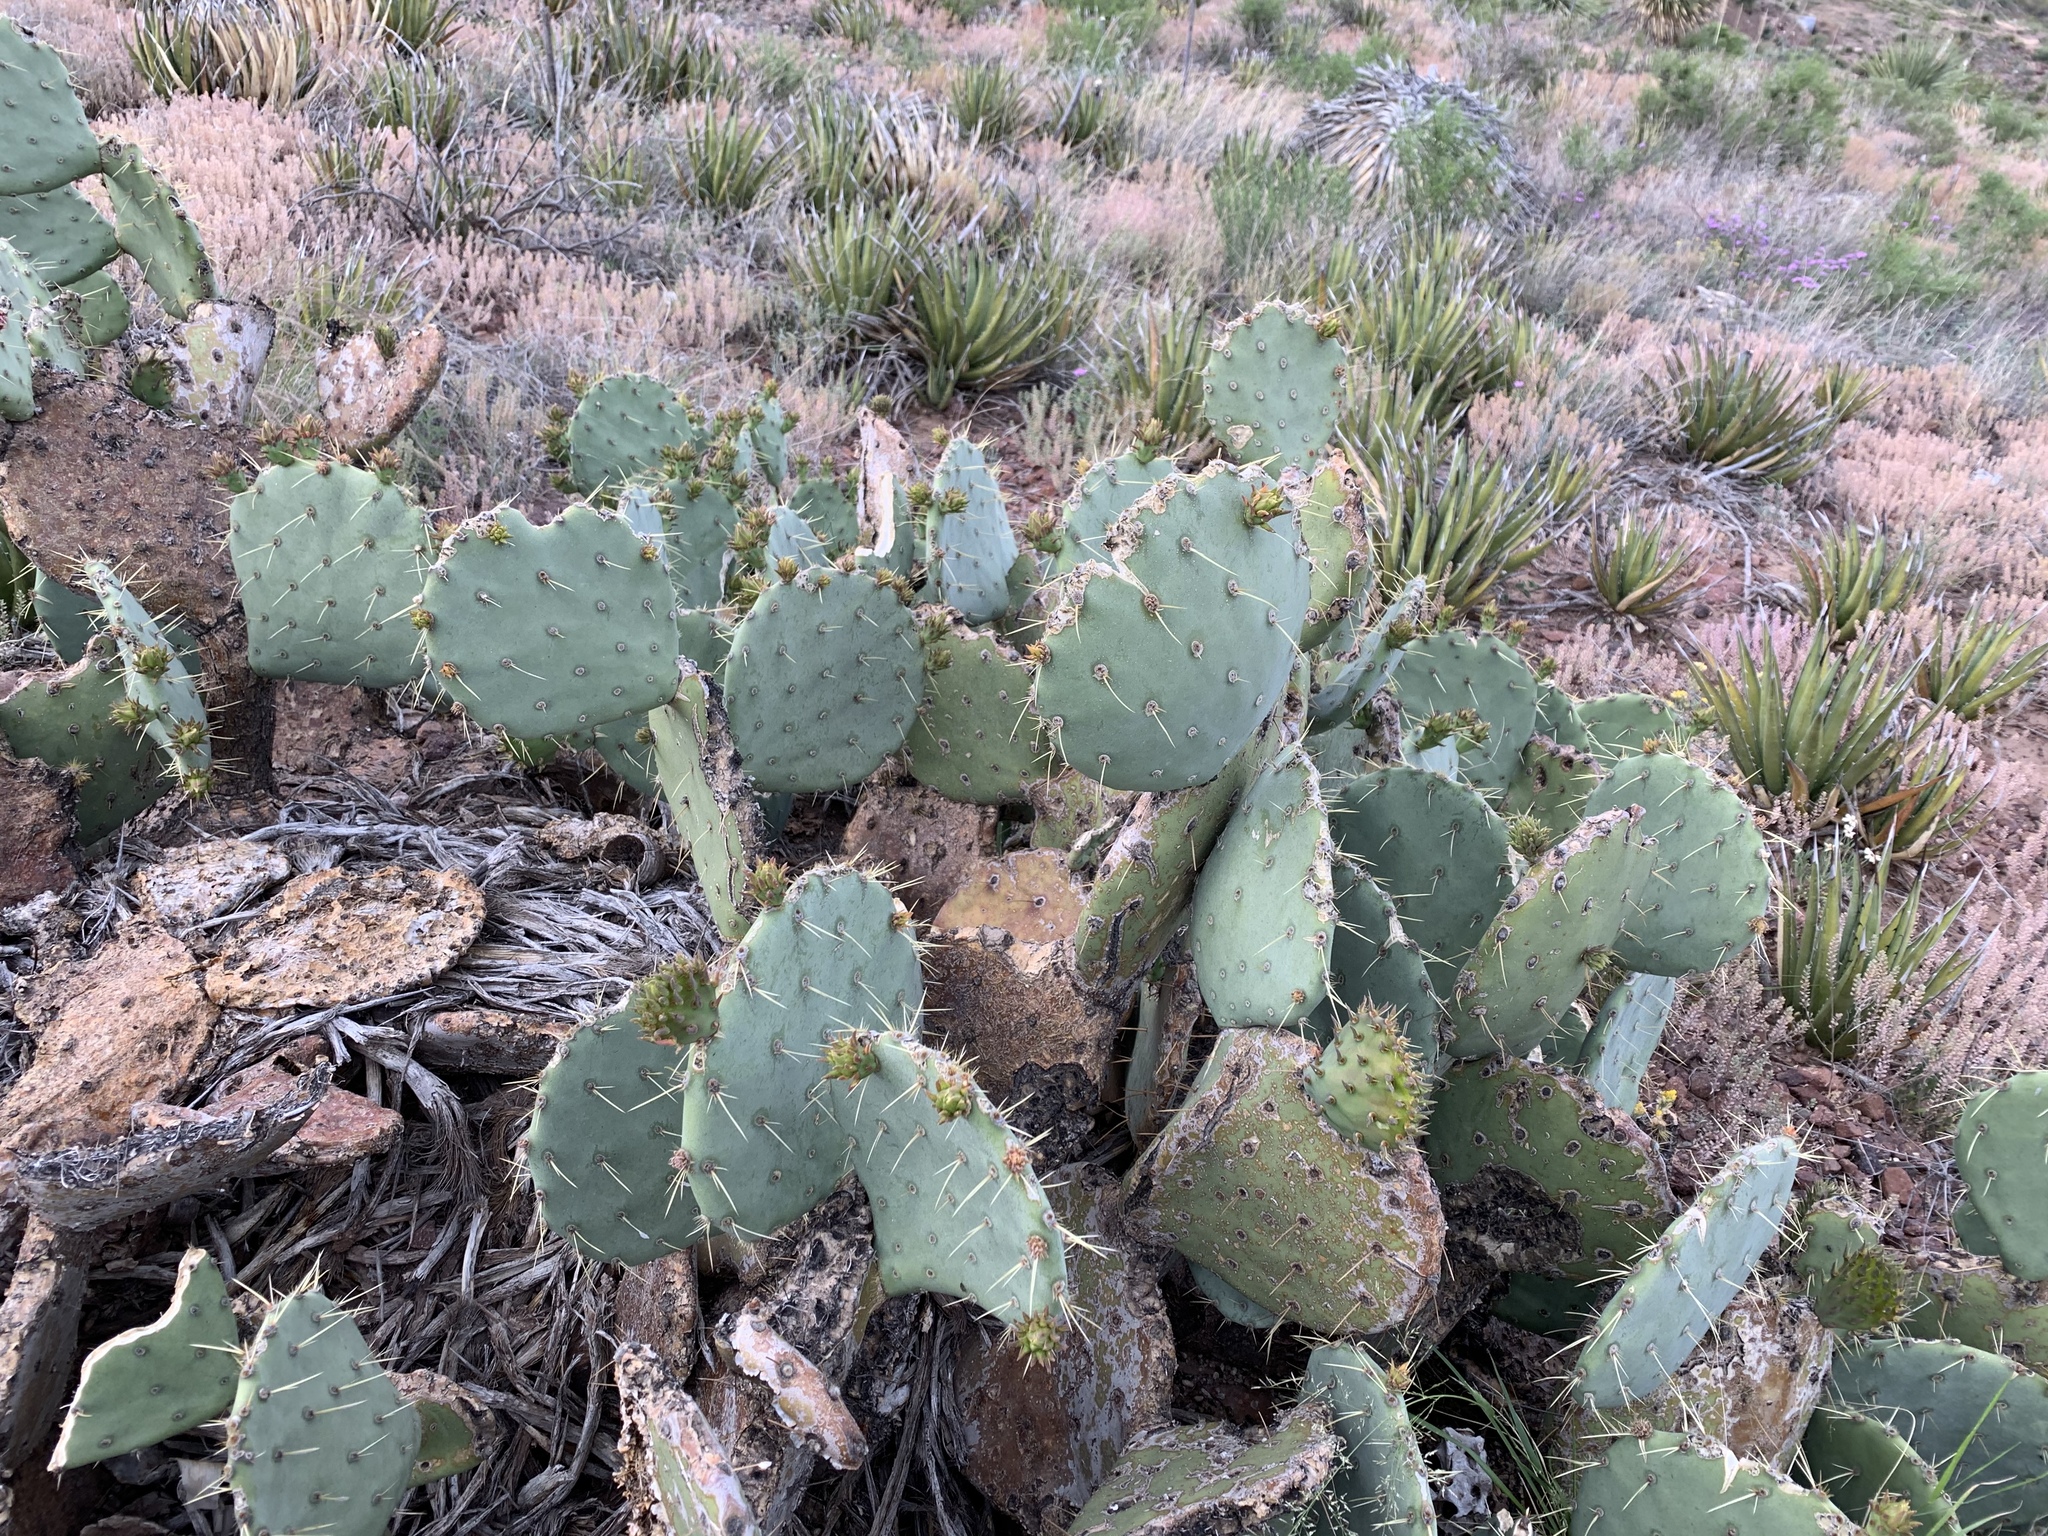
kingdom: Plantae
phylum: Tracheophyta
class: Magnoliopsida
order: Caryophyllales
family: Cactaceae
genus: Opuntia
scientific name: Opuntia engelmannii
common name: Cactus-apple
